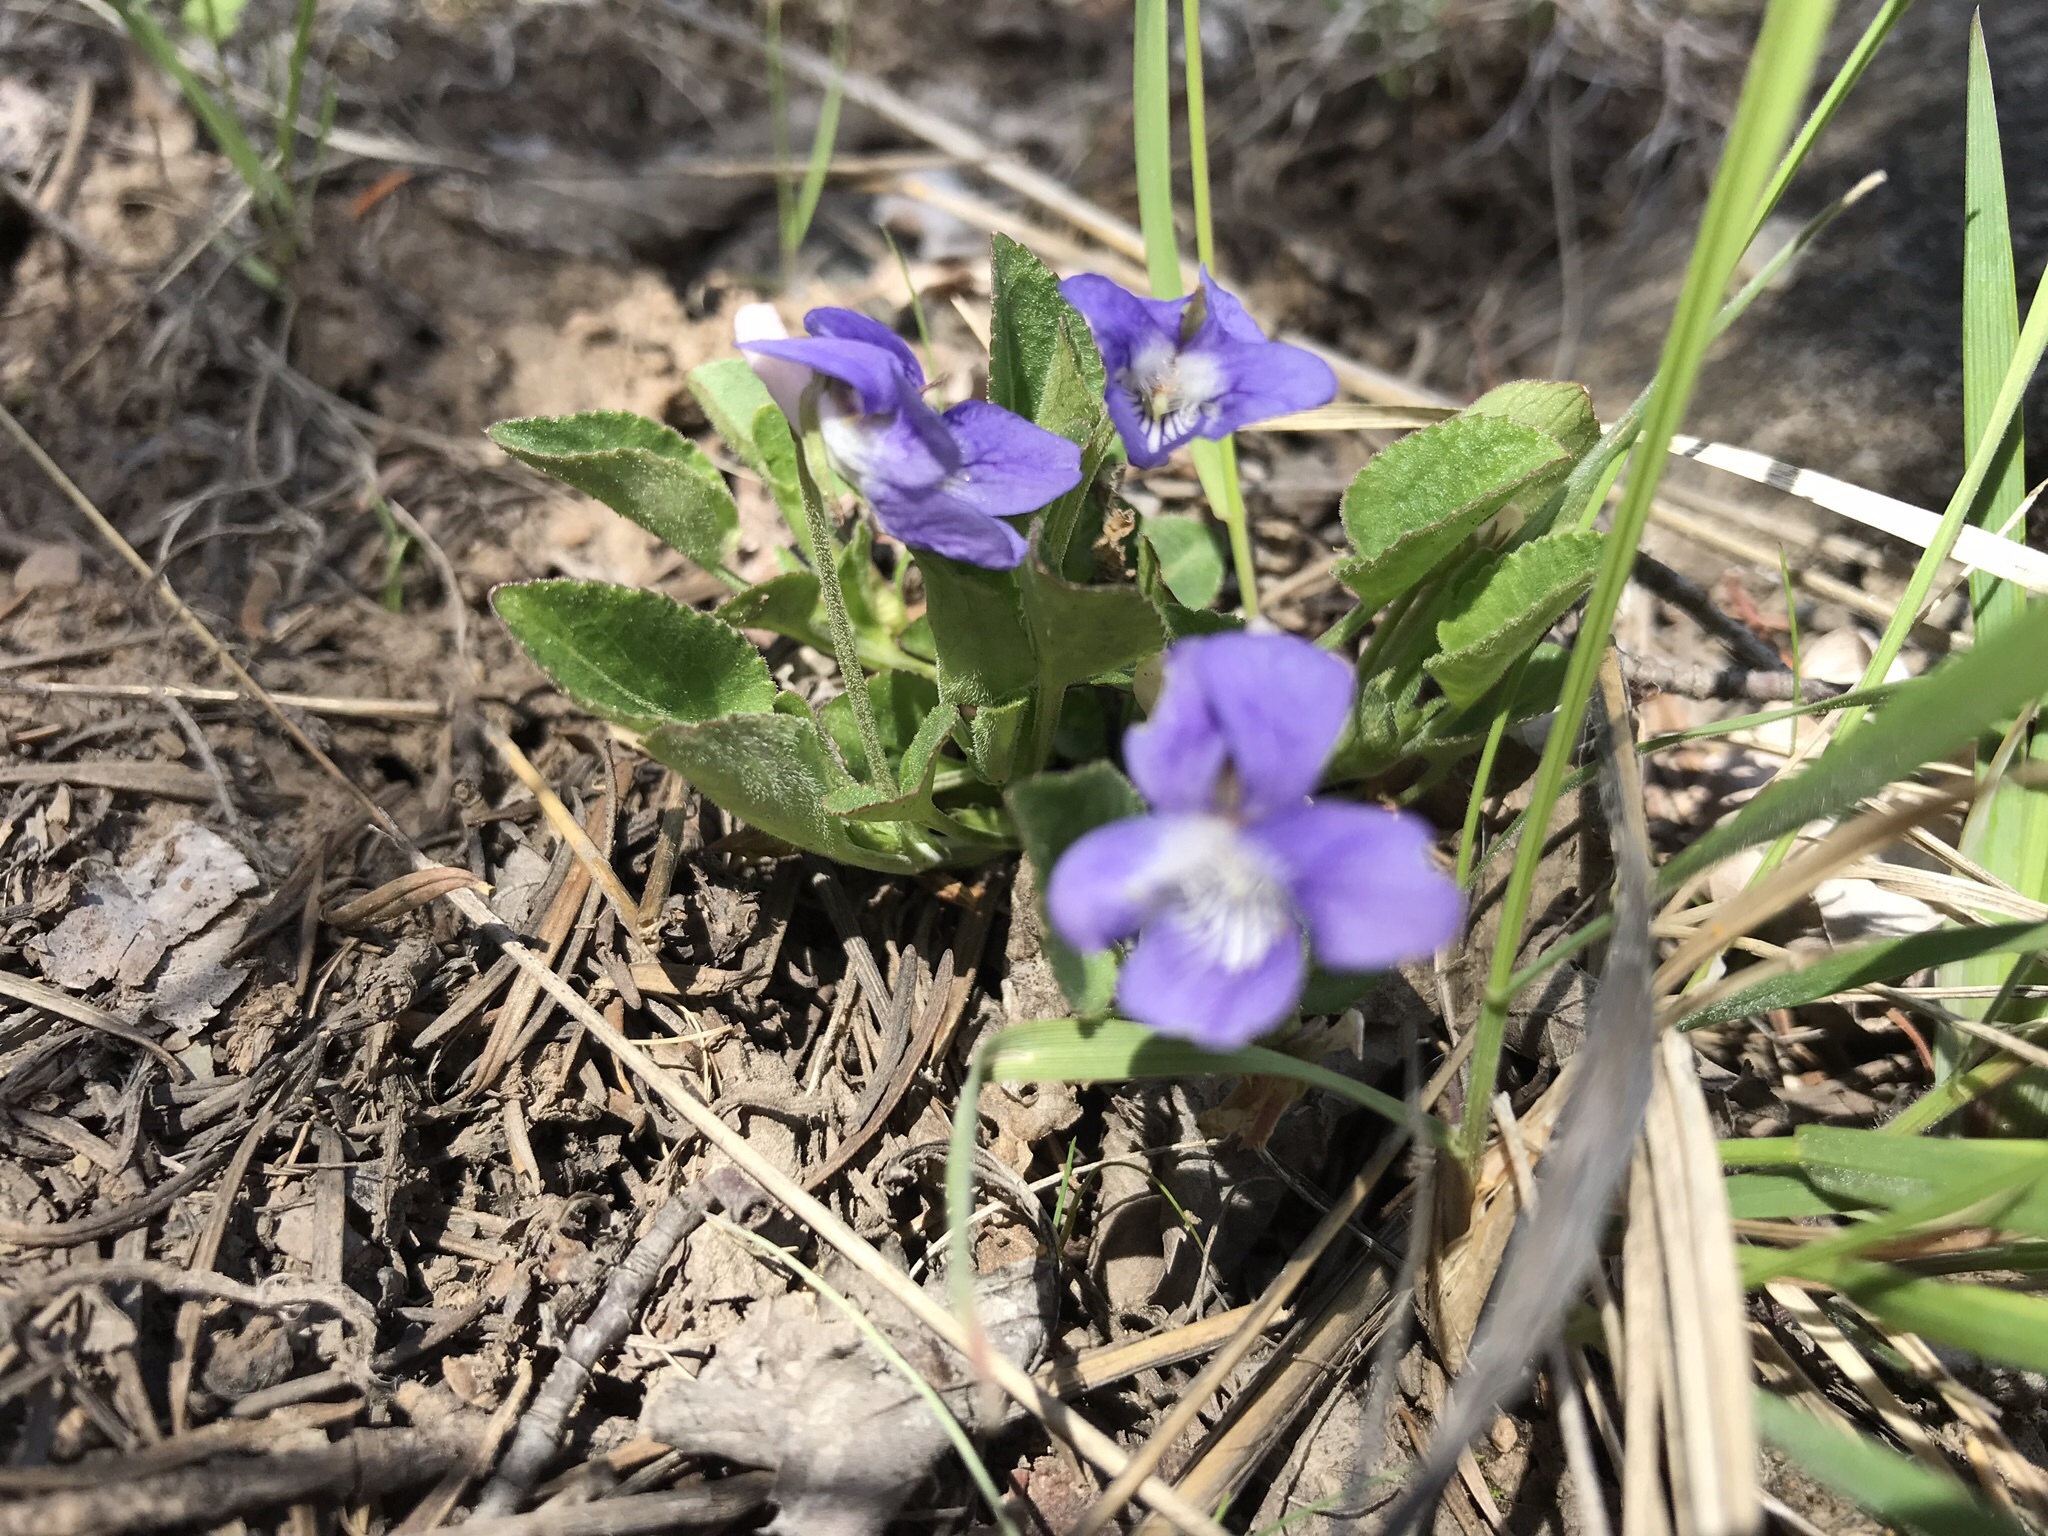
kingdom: Plantae
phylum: Tracheophyta
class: Magnoliopsida
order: Malpighiales
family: Violaceae
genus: Viola
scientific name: Viola adunca
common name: Sand violet
